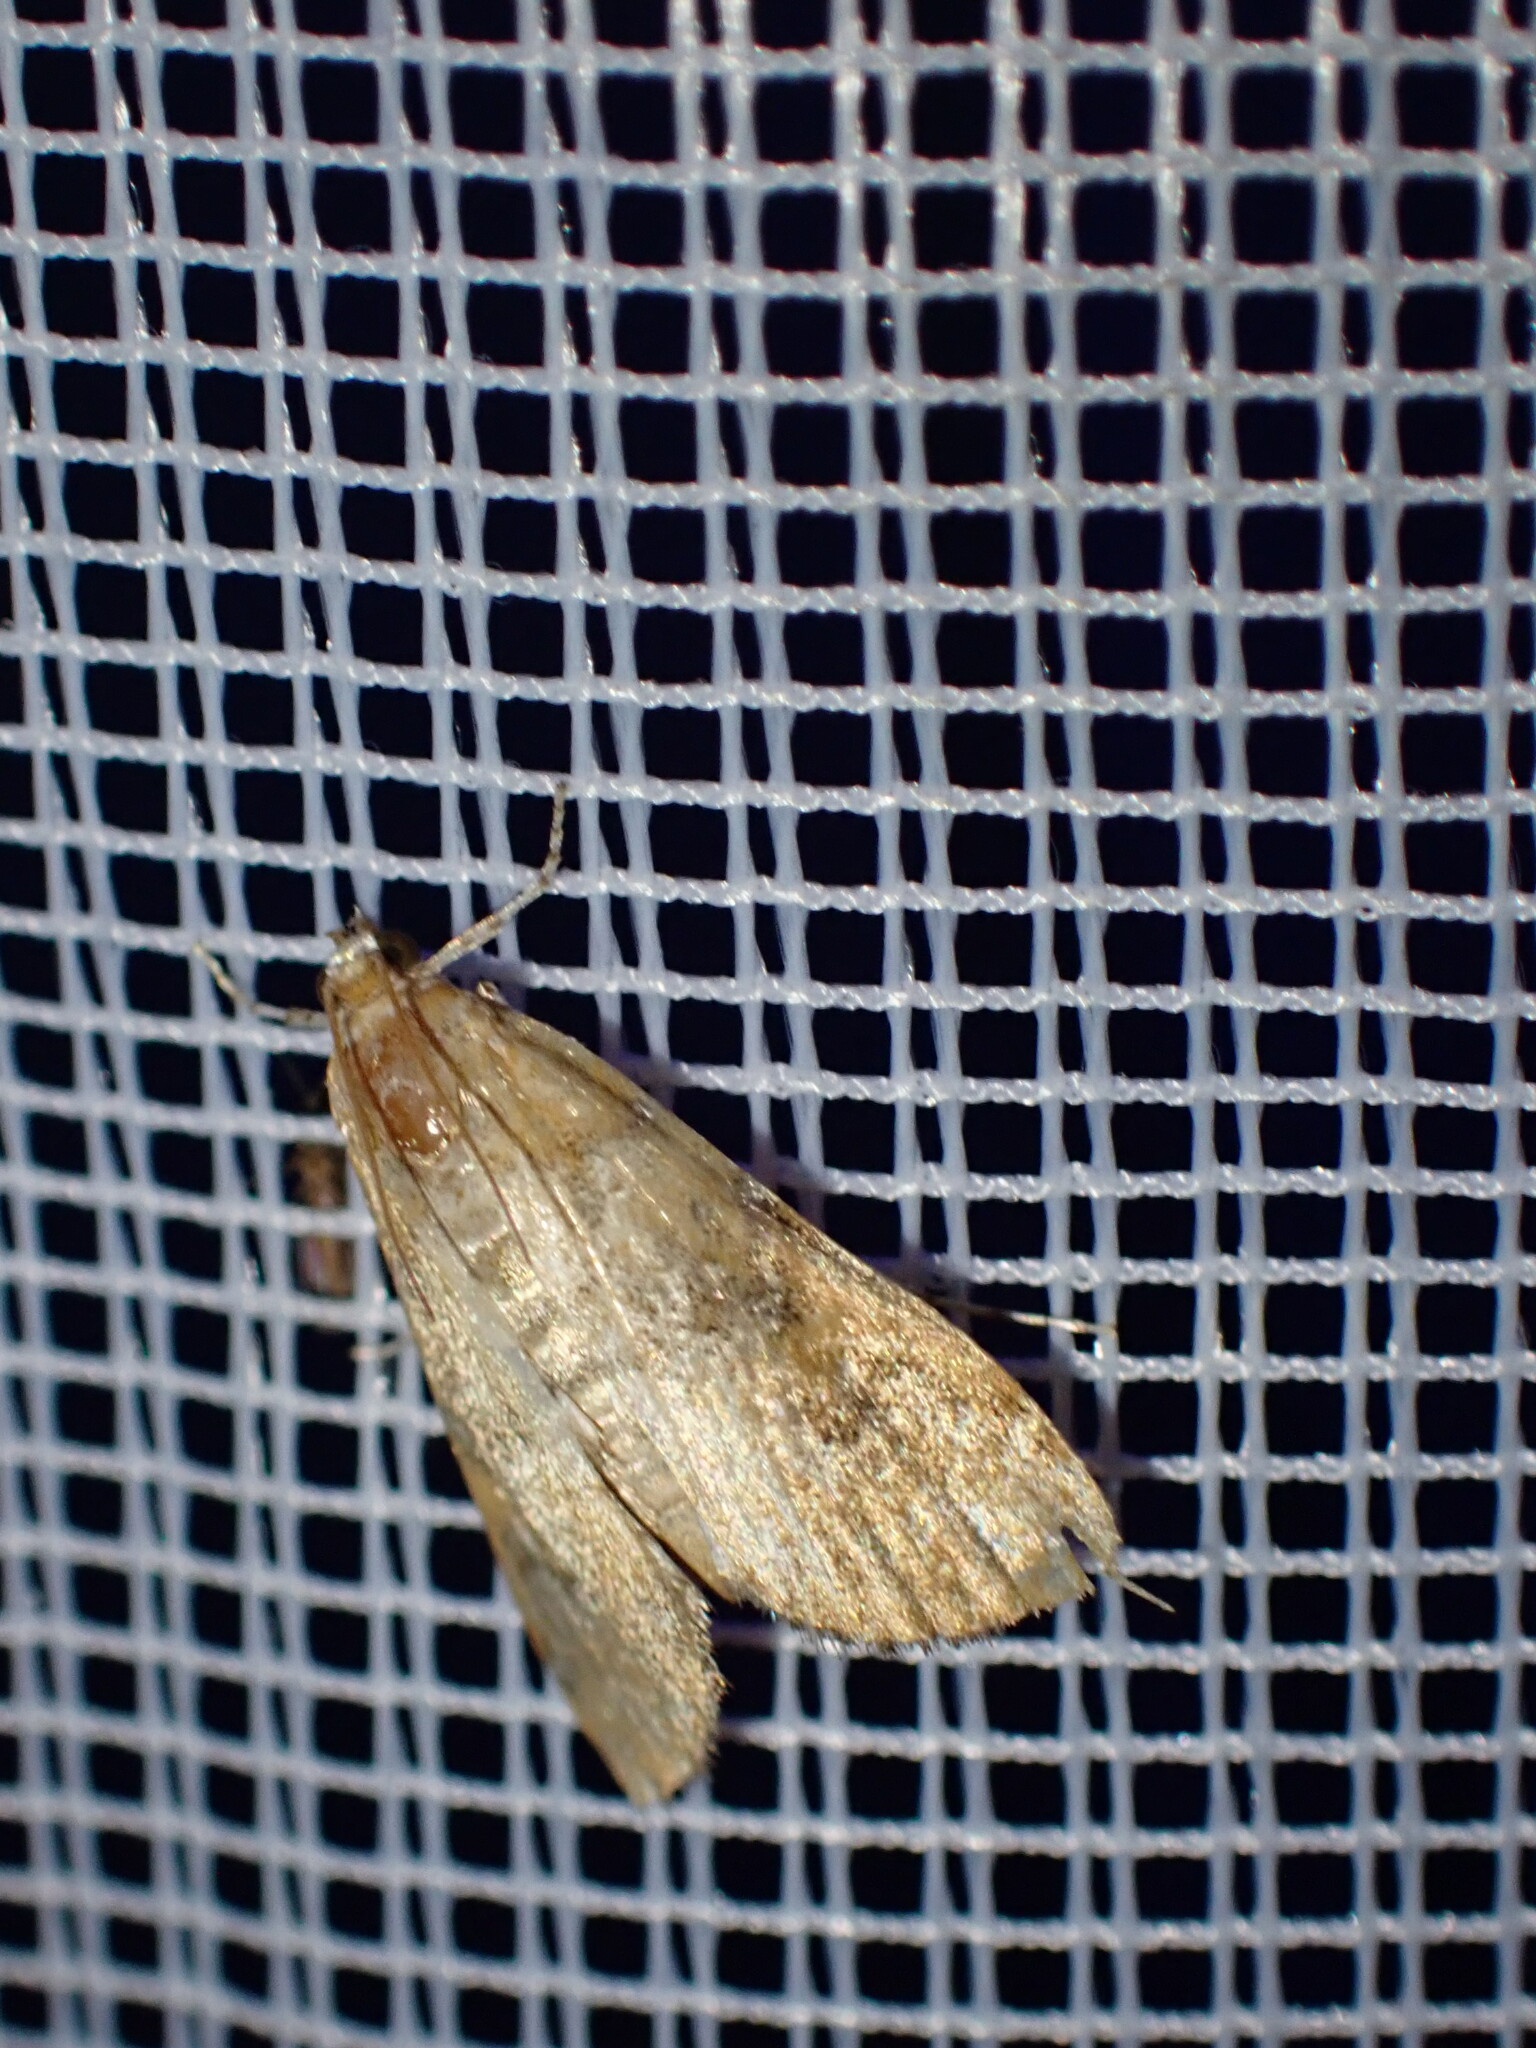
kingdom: Animalia
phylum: Arthropoda
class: Insecta
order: Lepidoptera
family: Crambidae
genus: Elophila
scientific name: Elophila gyralis
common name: Waterlily borer moth
